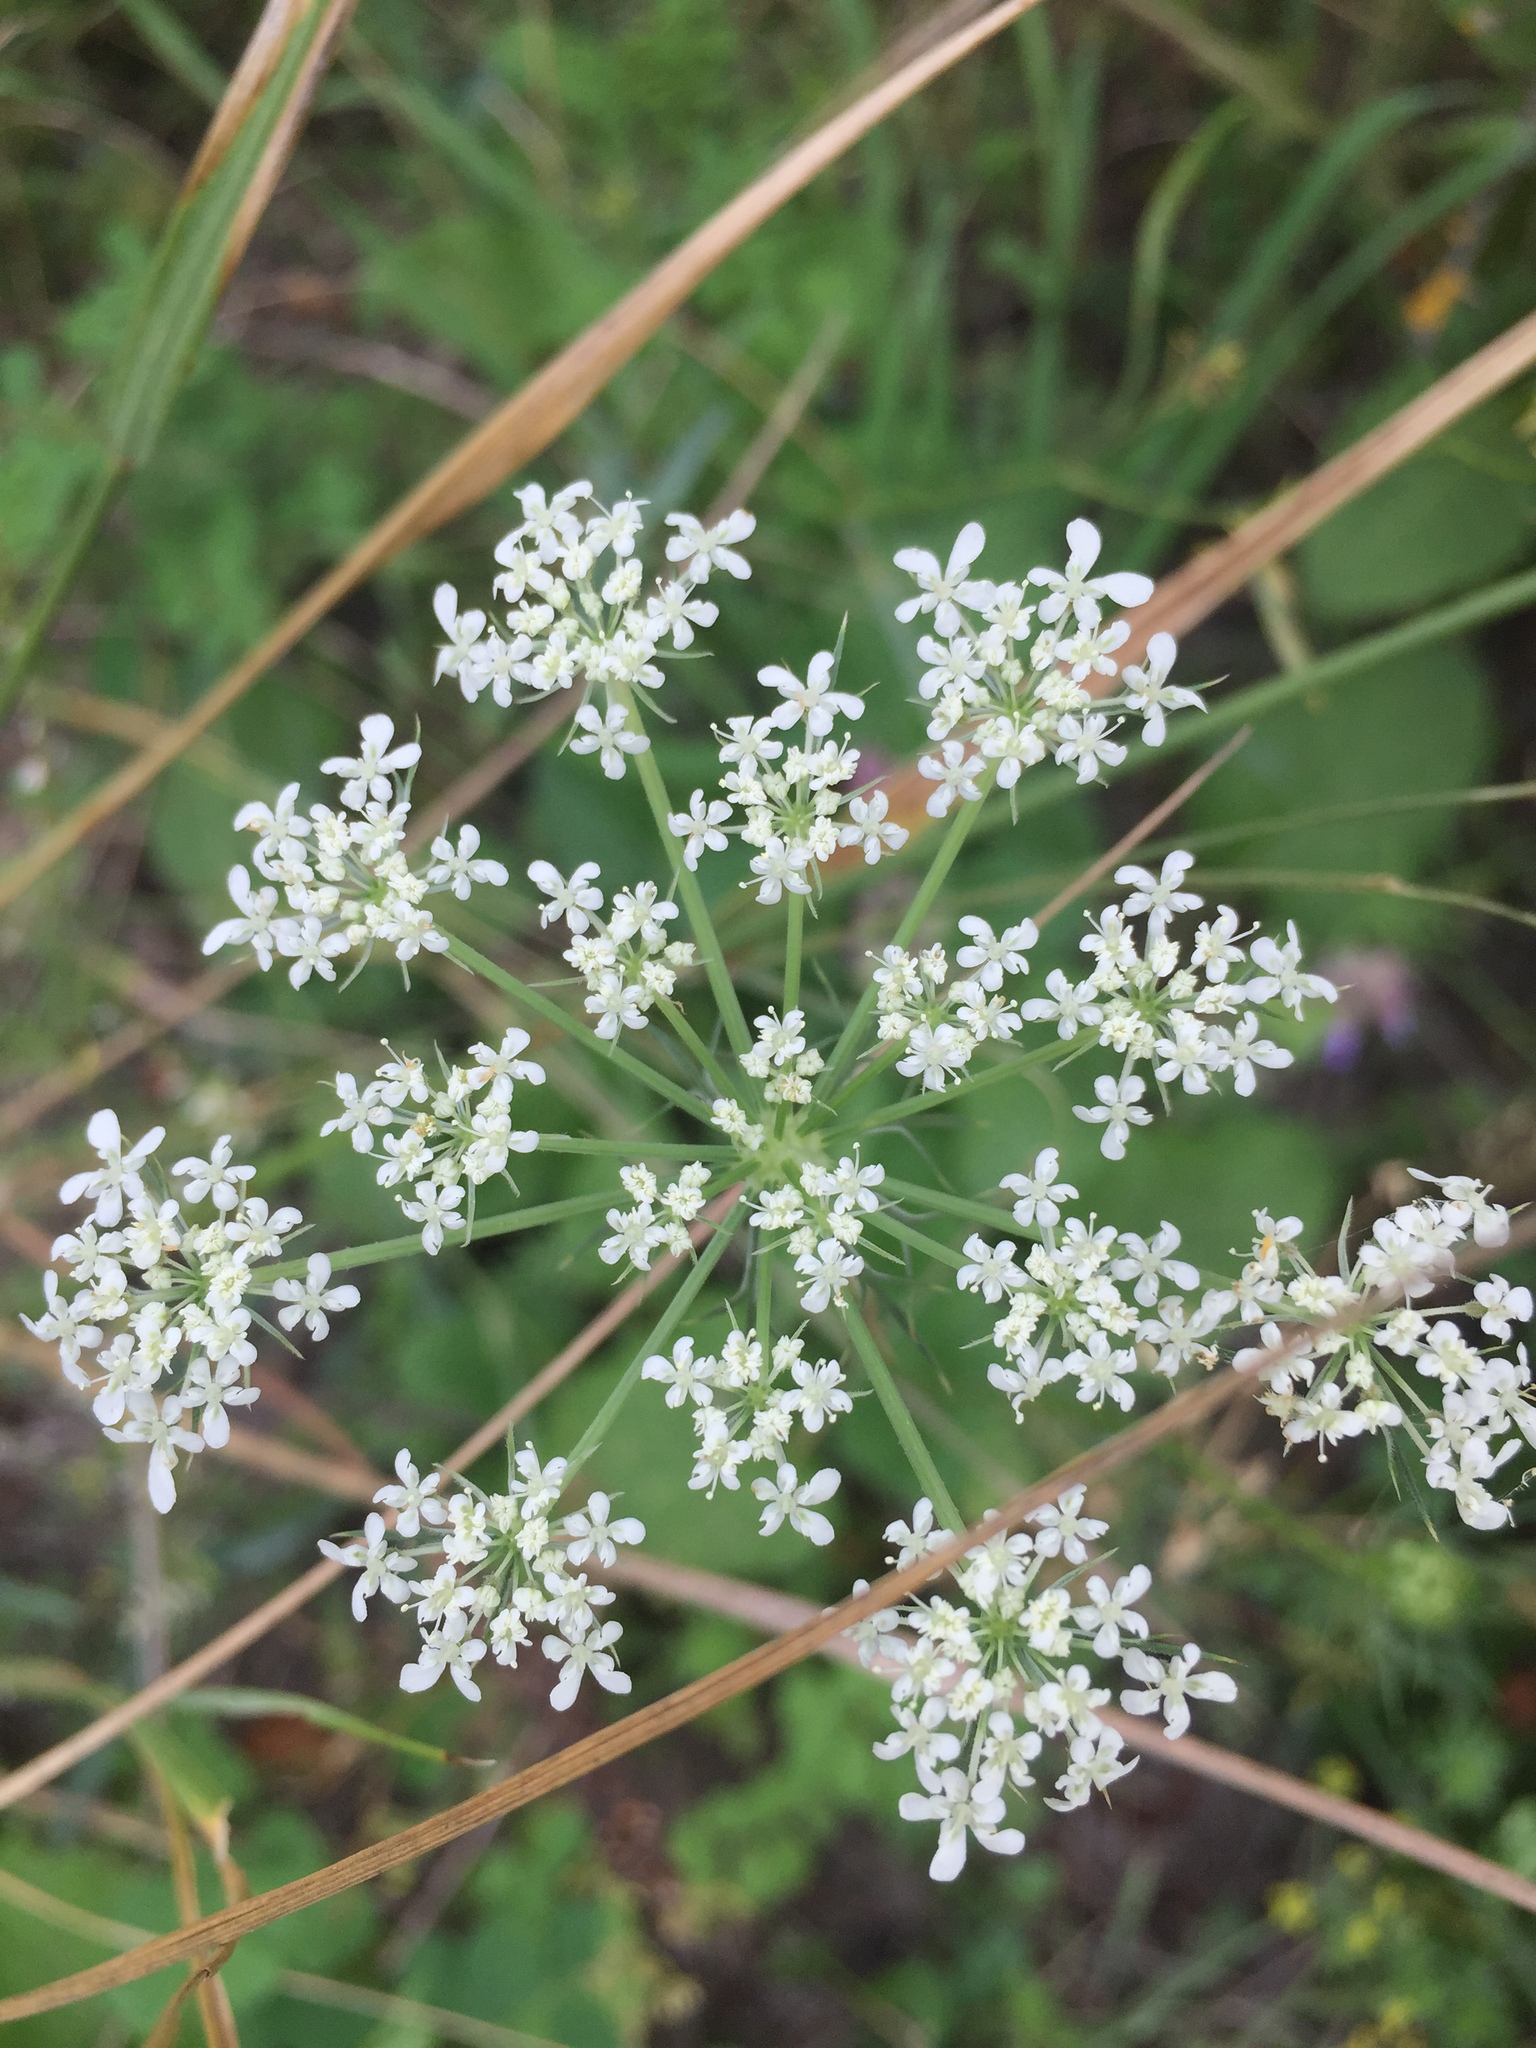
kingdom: Plantae
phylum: Tracheophyta
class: Magnoliopsida
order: Apiales
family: Apiaceae
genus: Daucus
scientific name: Daucus carota
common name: Wild carrot
